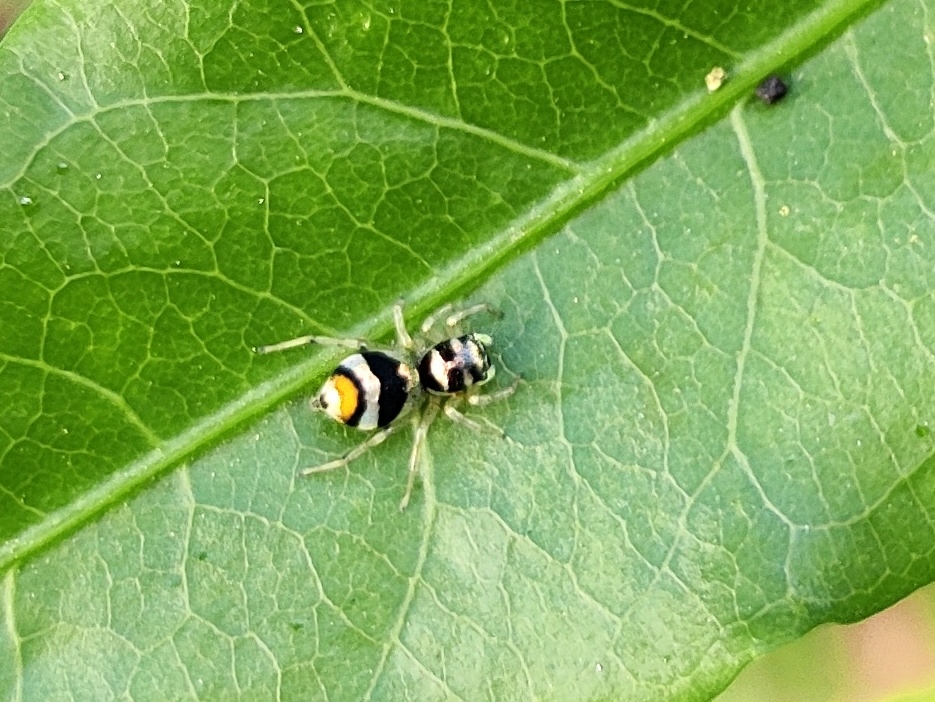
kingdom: Animalia
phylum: Arthropoda
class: Arachnida
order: Araneae
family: Salticidae
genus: Phintella
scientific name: Phintella vittata
